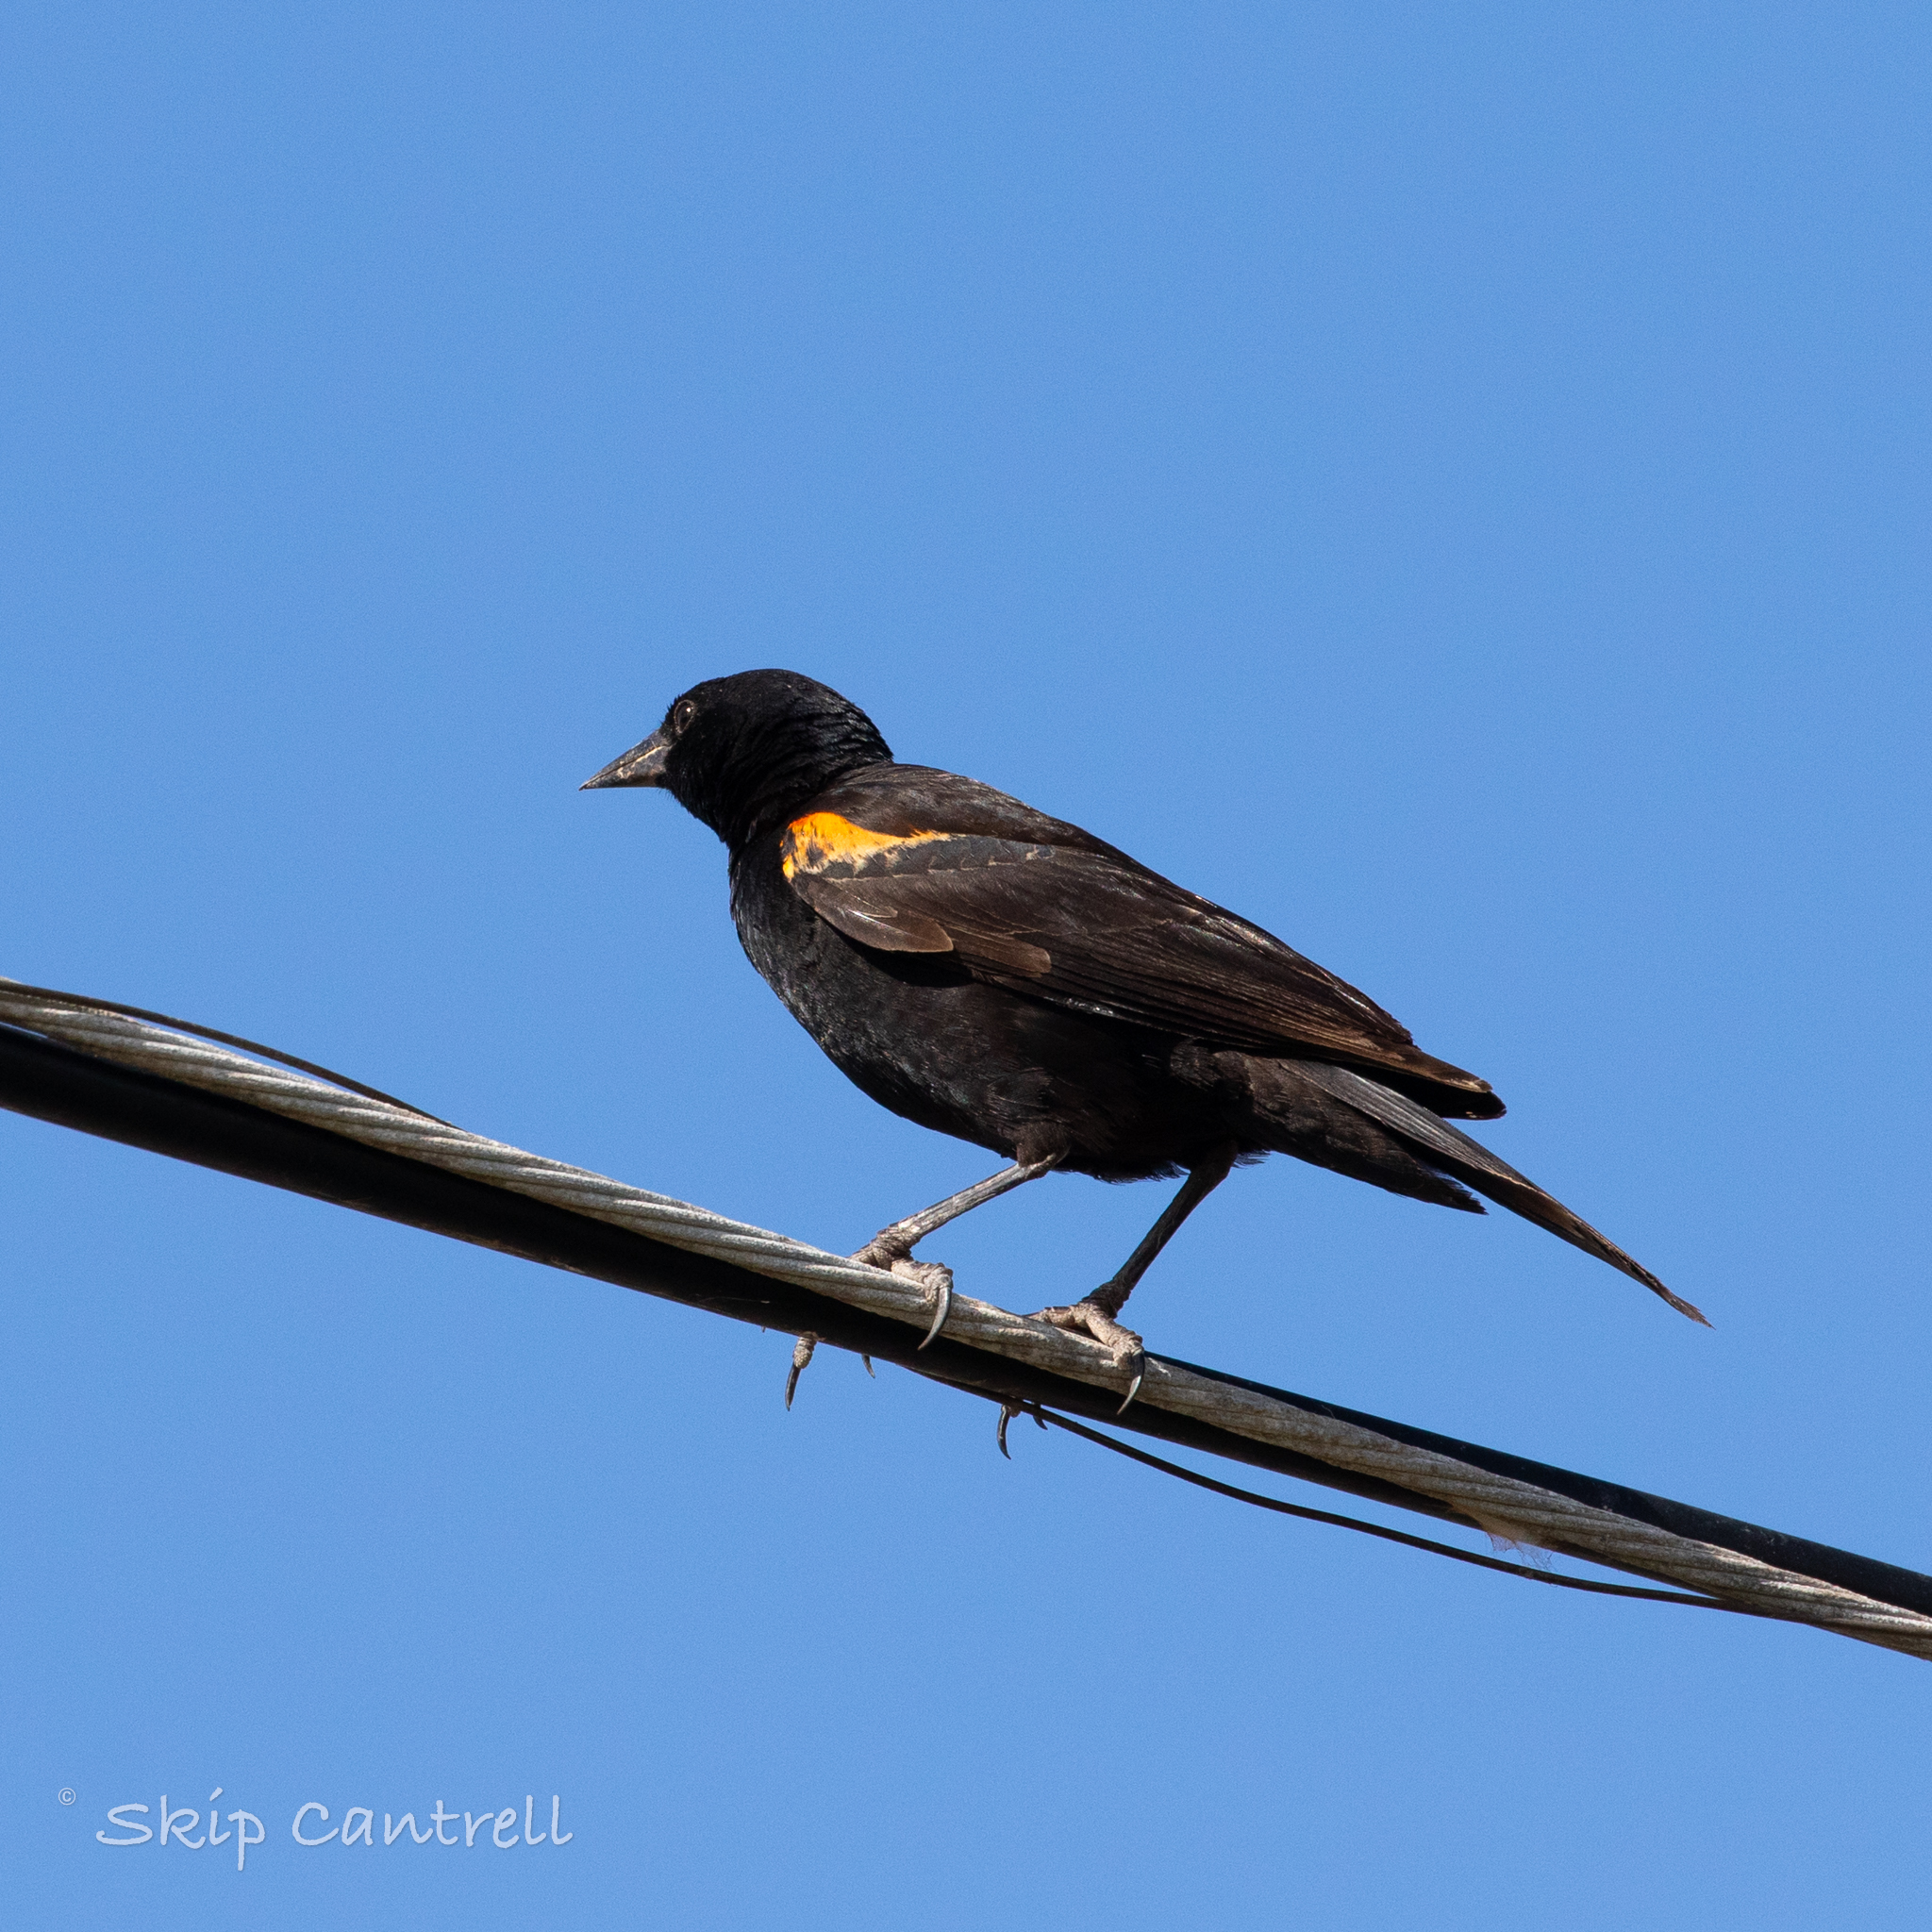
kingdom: Animalia
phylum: Chordata
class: Aves
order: Passeriformes
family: Icteridae
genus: Agelaius
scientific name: Agelaius phoeniceus
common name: Red-winged blackbird
